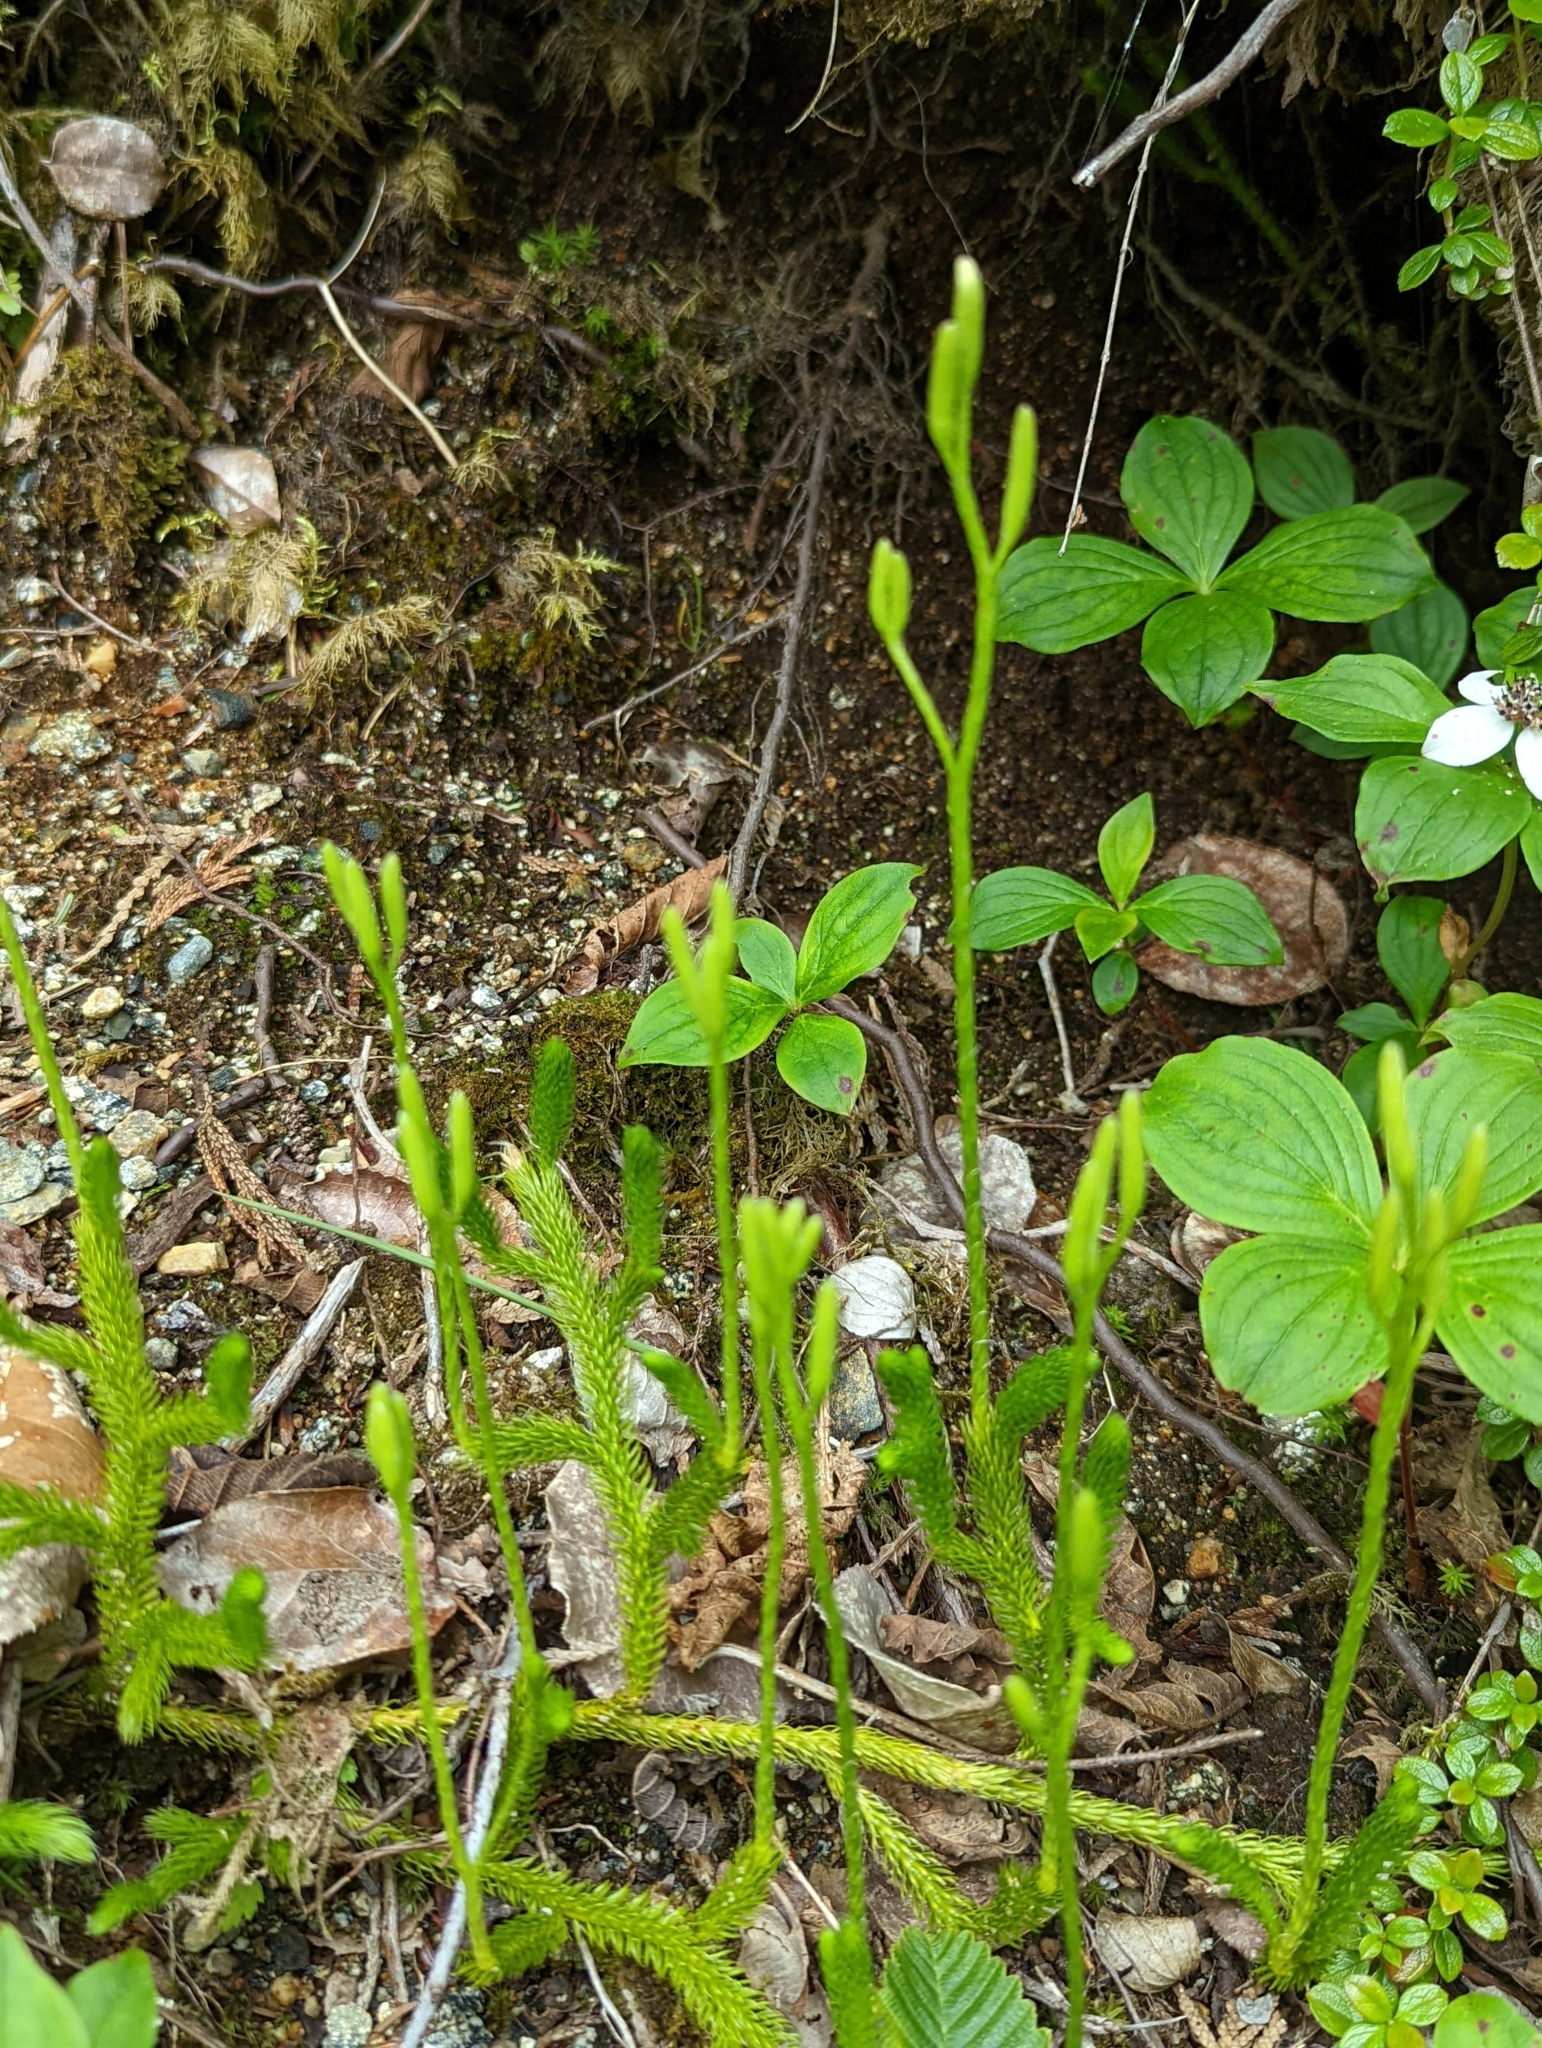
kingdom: Plantae
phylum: Tracheophyta
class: Lycopodiopsida
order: Lycopodiales
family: Lycopodiaceae
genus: Lycopodium
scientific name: Lycopodium clavatum
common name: Stag's-horn clubmoss
